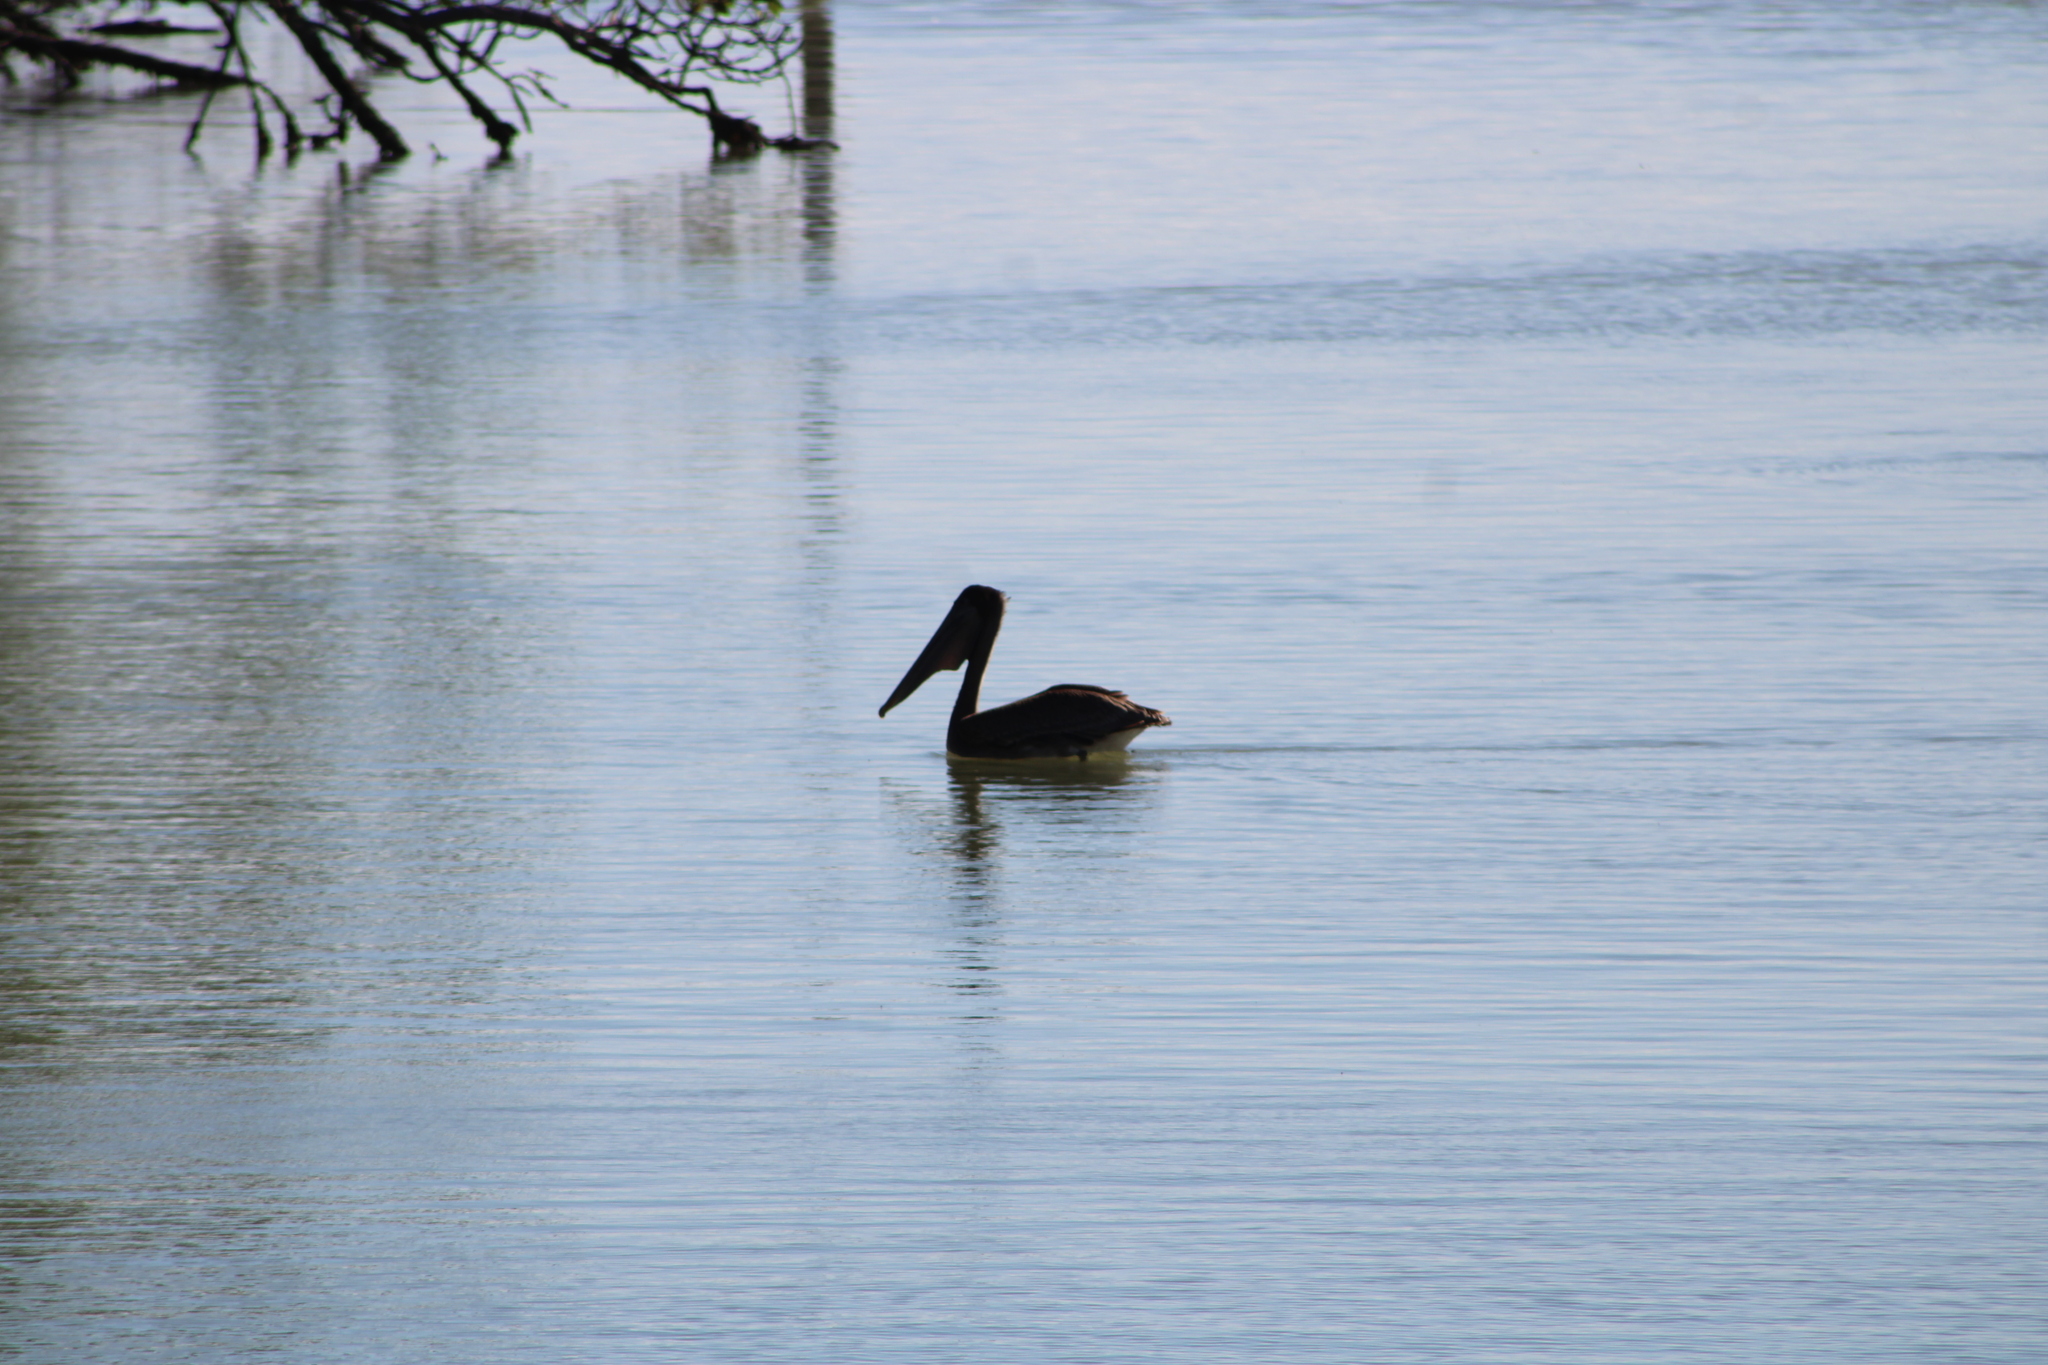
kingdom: Animalia
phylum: Chordata
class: Aves
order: Pelecaniformes
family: Pelecanidae
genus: Pelecanus
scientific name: Pelecanus occidentalis
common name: Brown pelican
